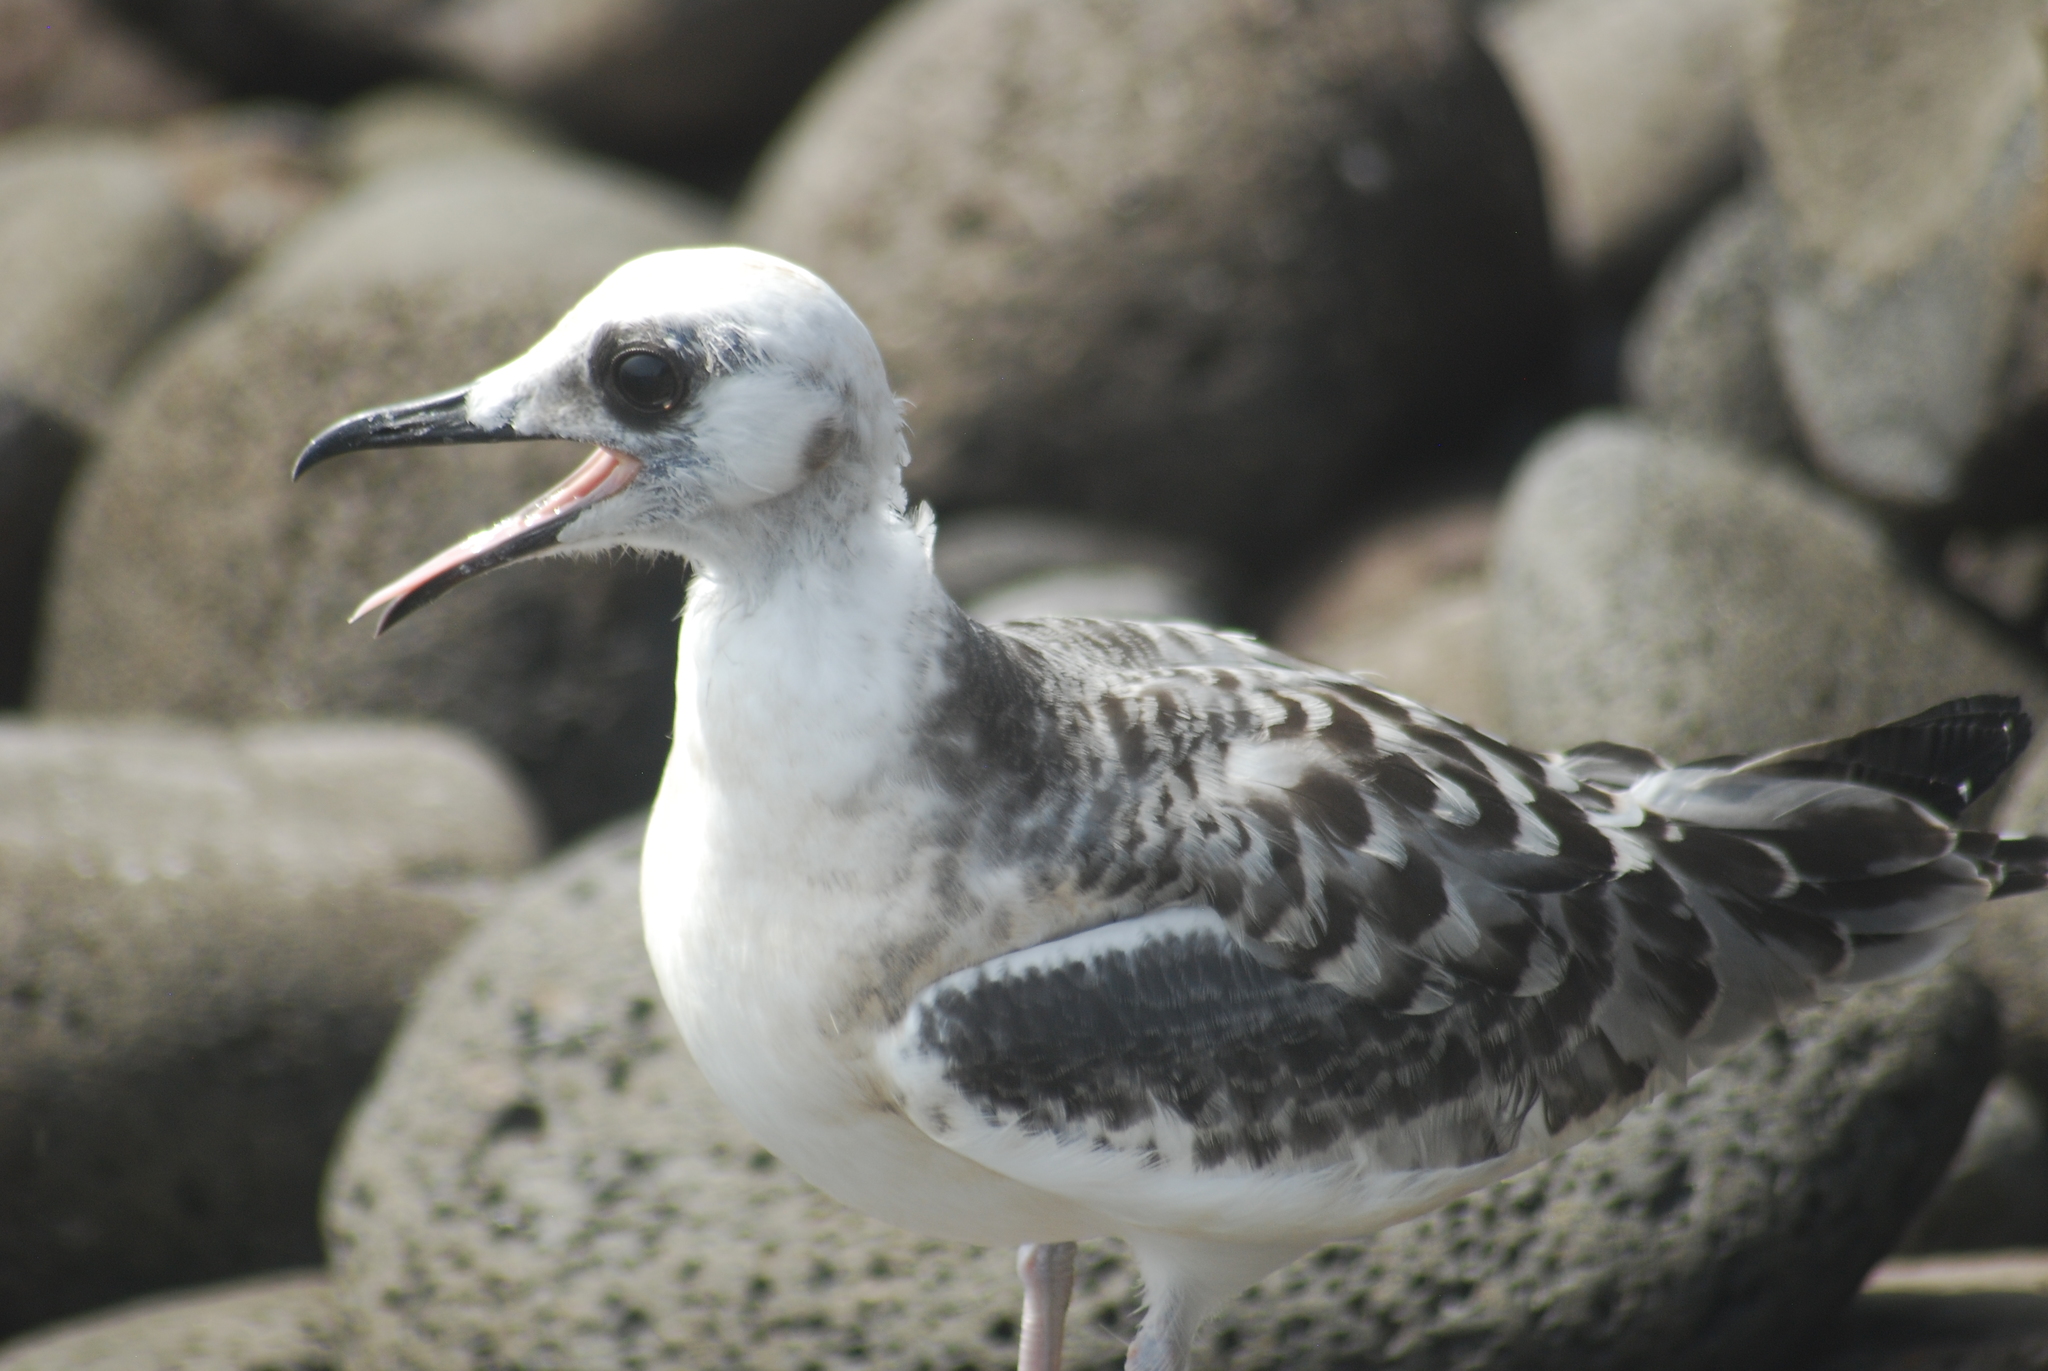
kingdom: Animalia
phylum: Chordata
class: Aves
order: Charadriiformes
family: Laridae
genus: Creagrus
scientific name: Creagrus furcatus
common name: Swallow-tailed gull
